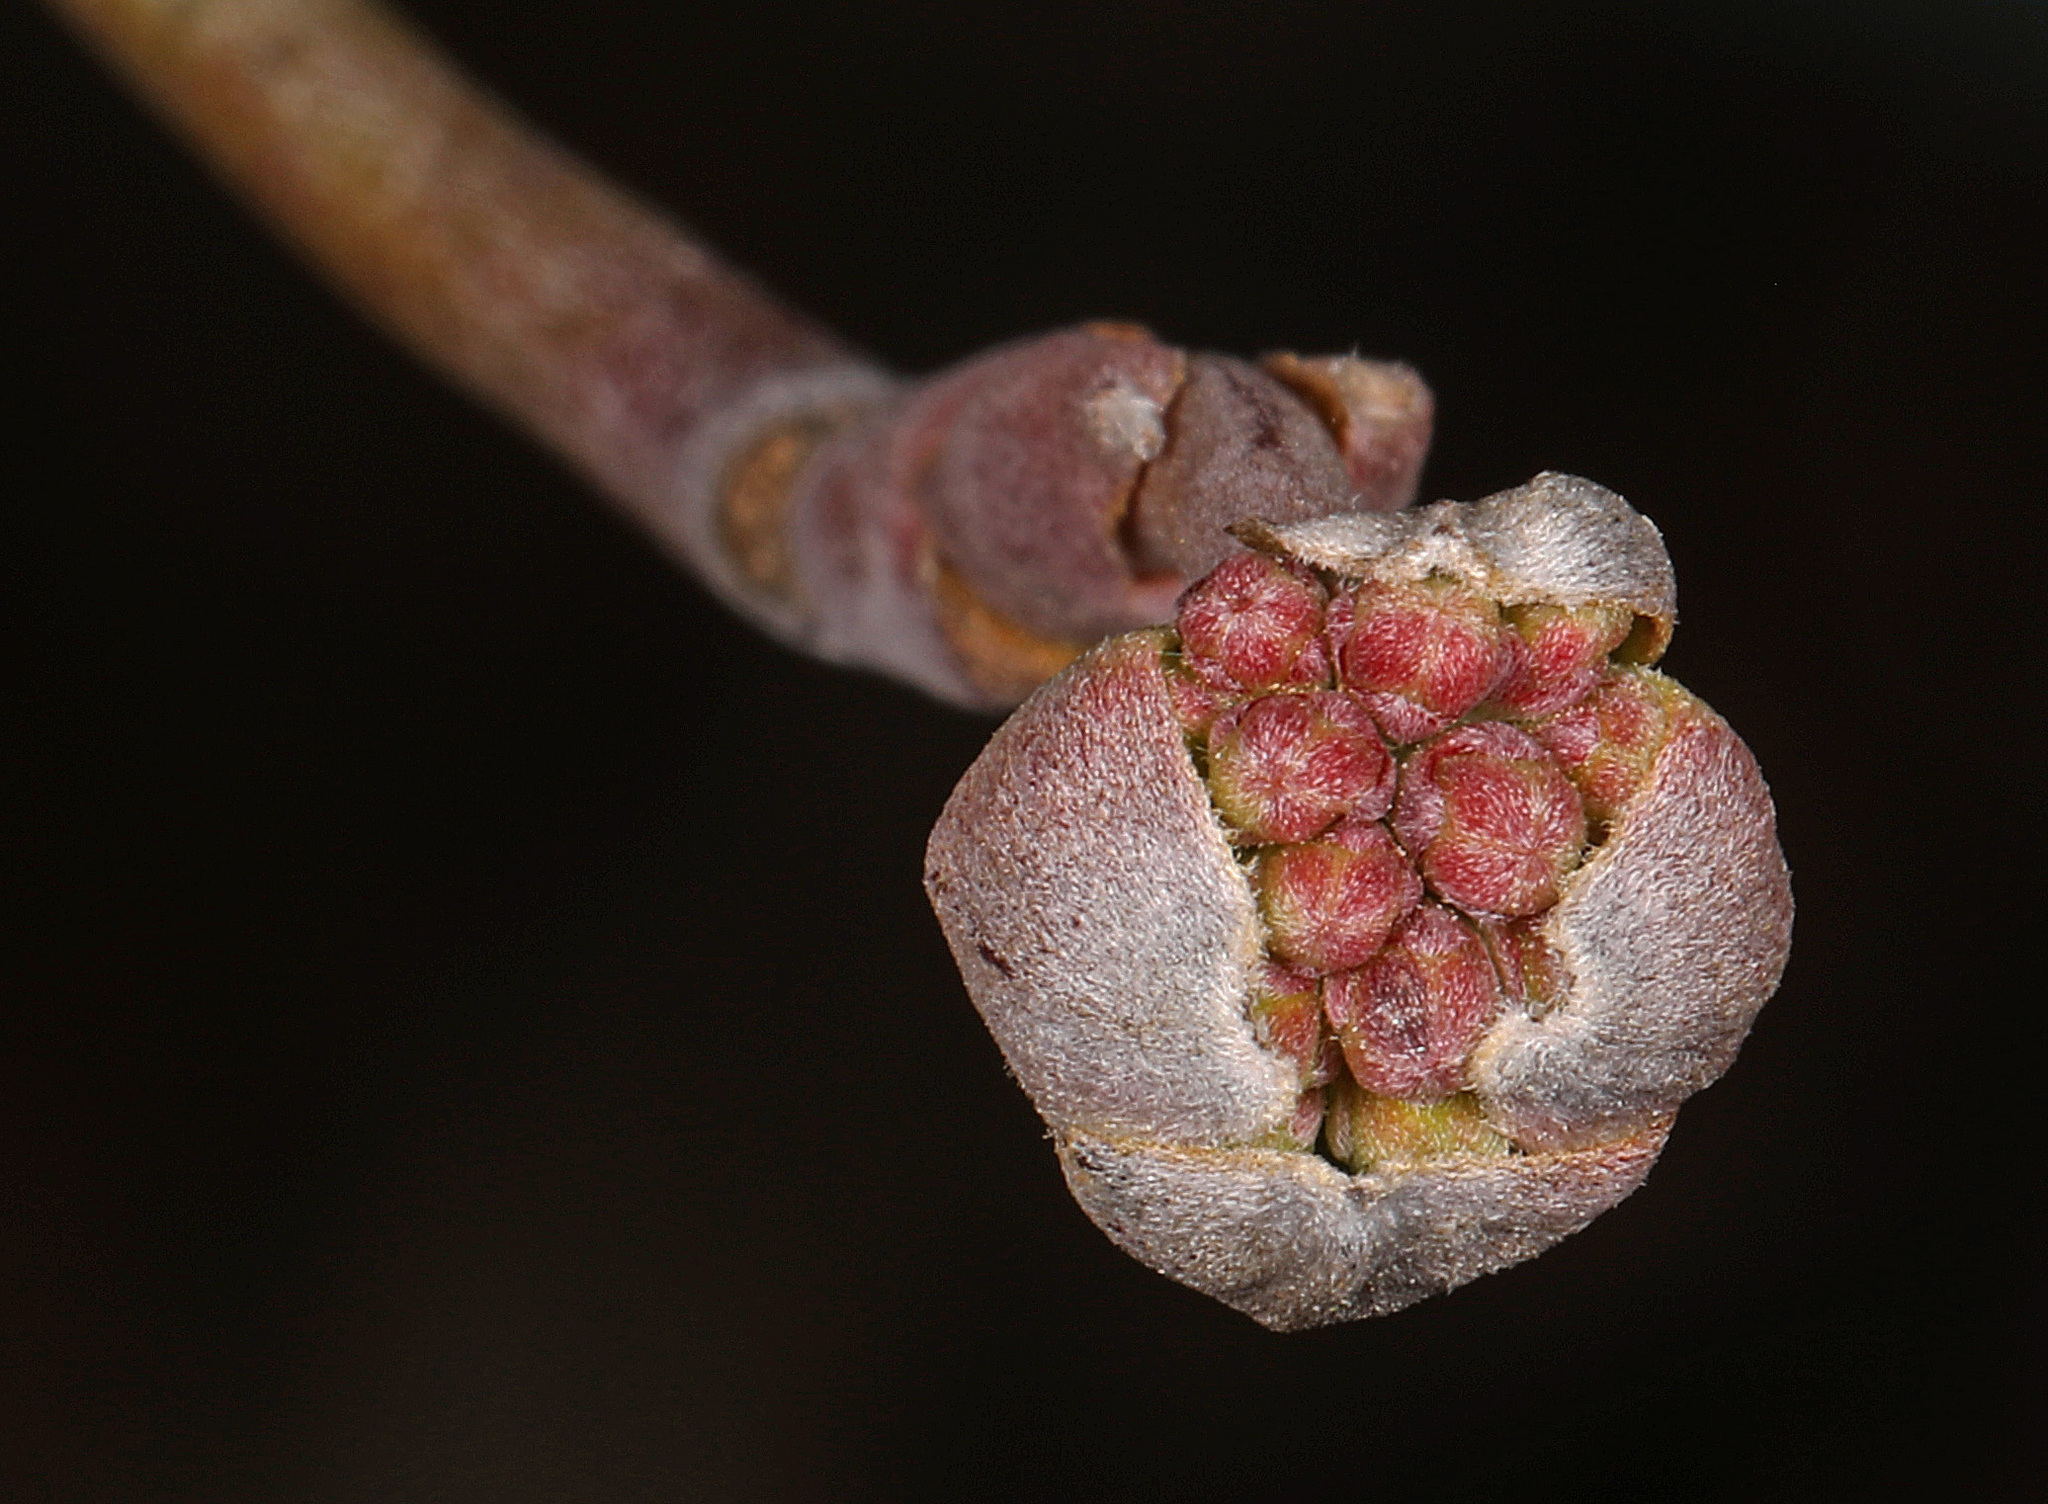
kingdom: Plantae
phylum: Tracheophyta
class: Magnoliopsida
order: Cornales
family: Cornaceae
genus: Cornus
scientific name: Cornus florida
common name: Flowering dogwood
